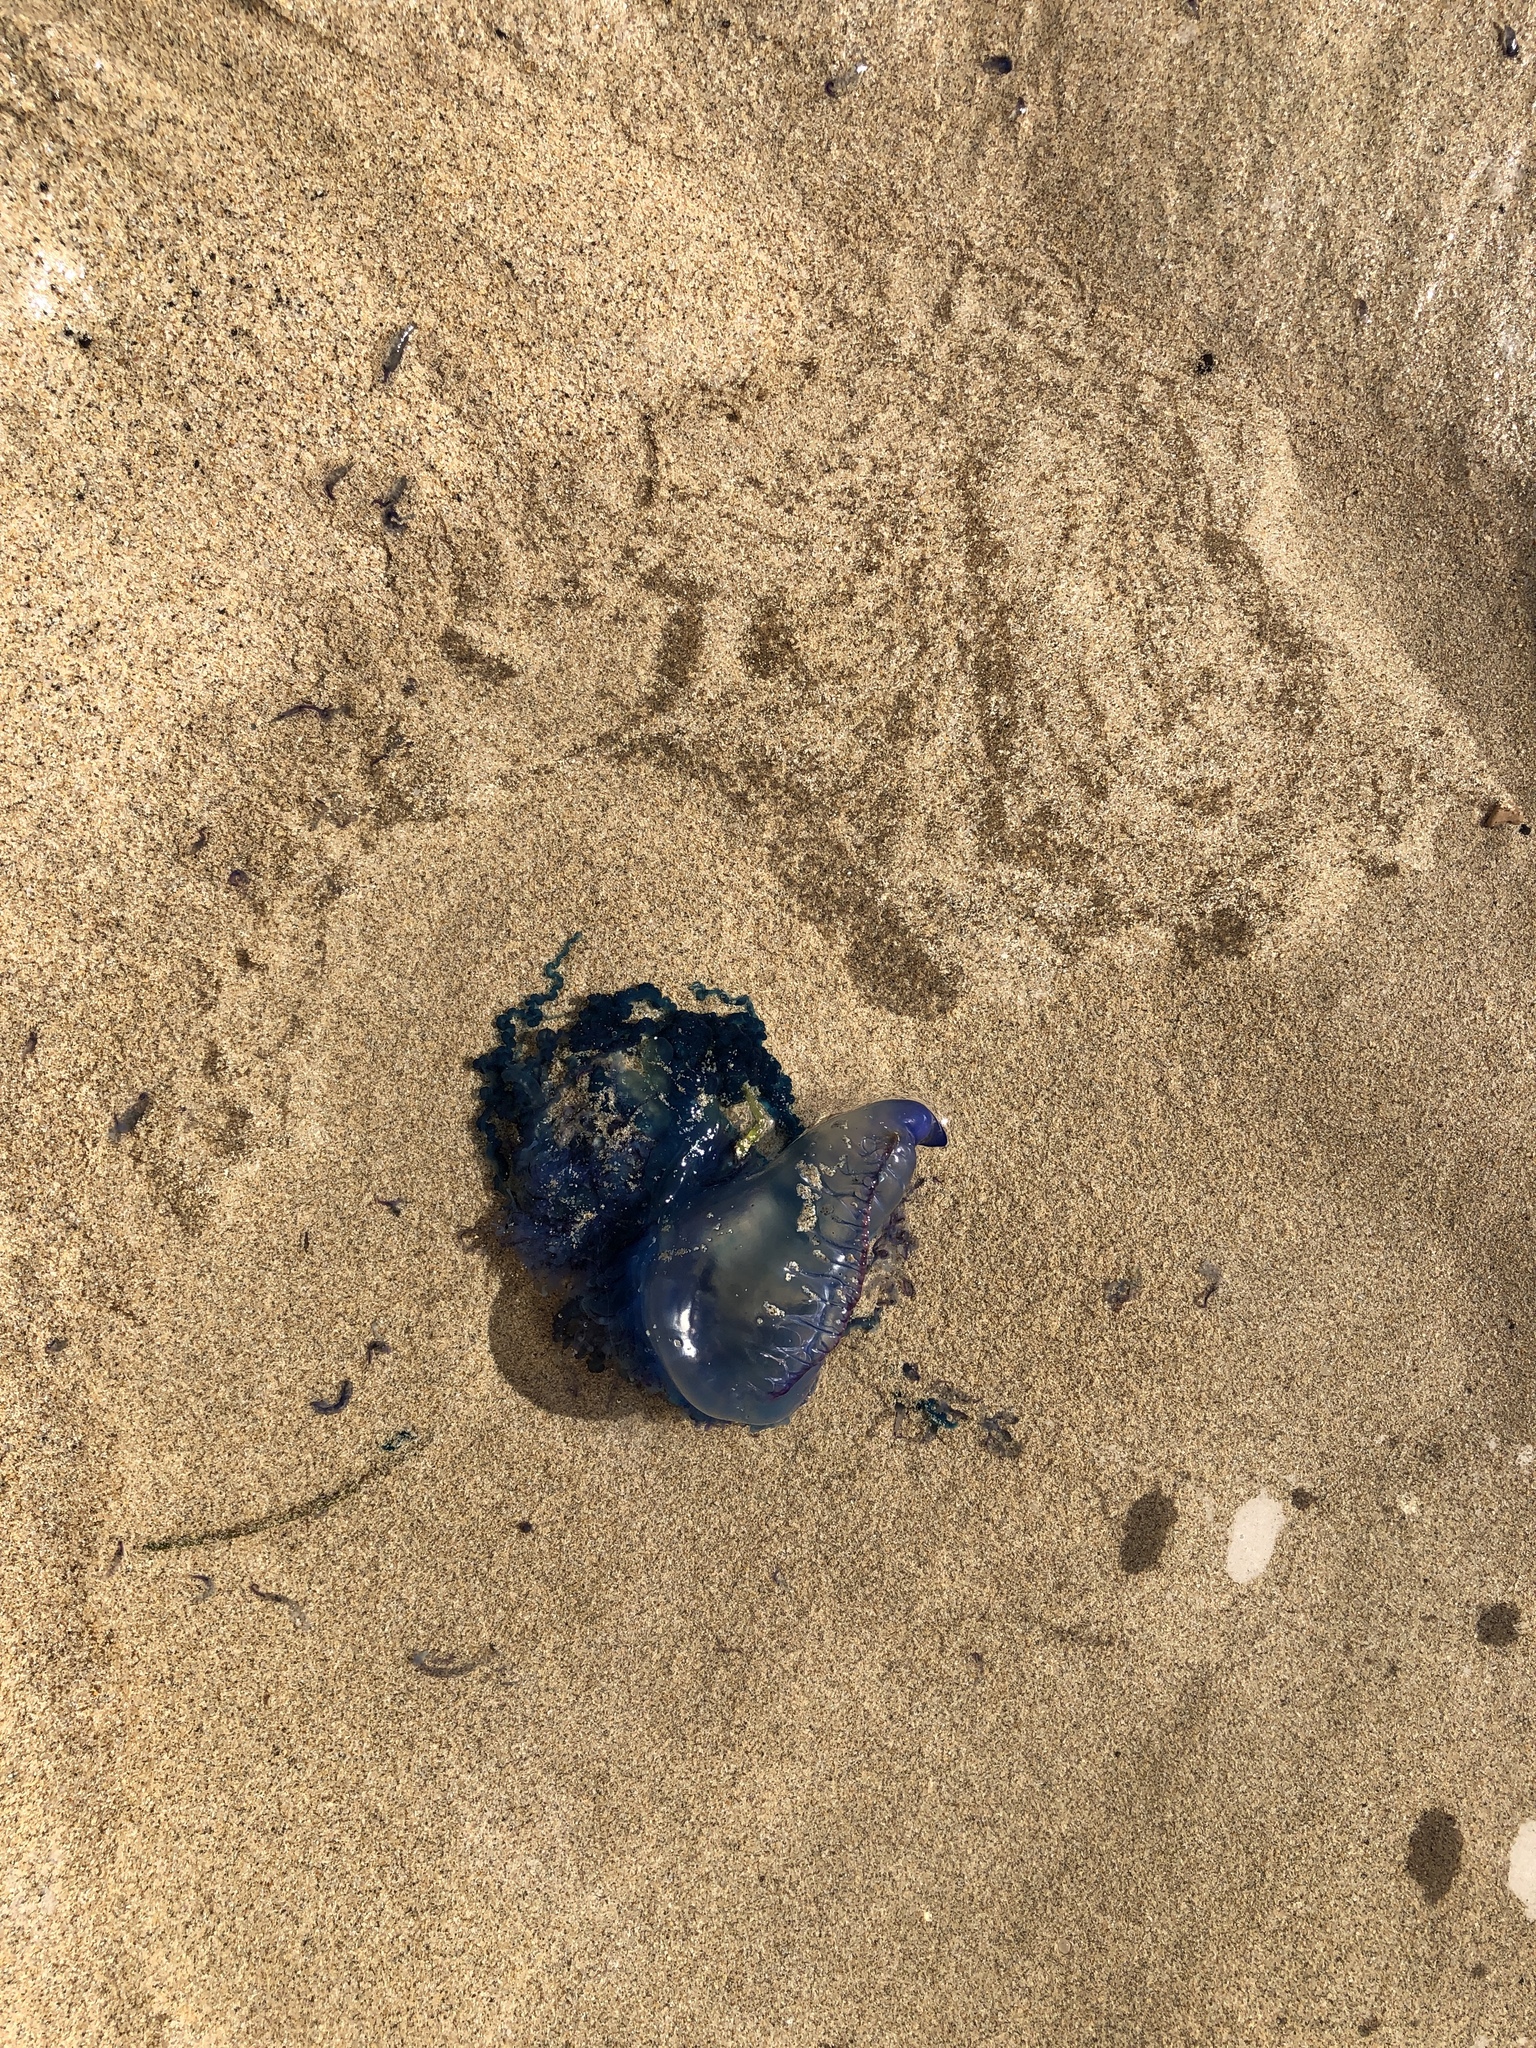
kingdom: Animalia
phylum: Cnidaria
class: Hydrozoa
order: Siphonophorae
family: Physaliidae
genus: Physalia
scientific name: Physalia physalis
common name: Portuguese man-of-war
